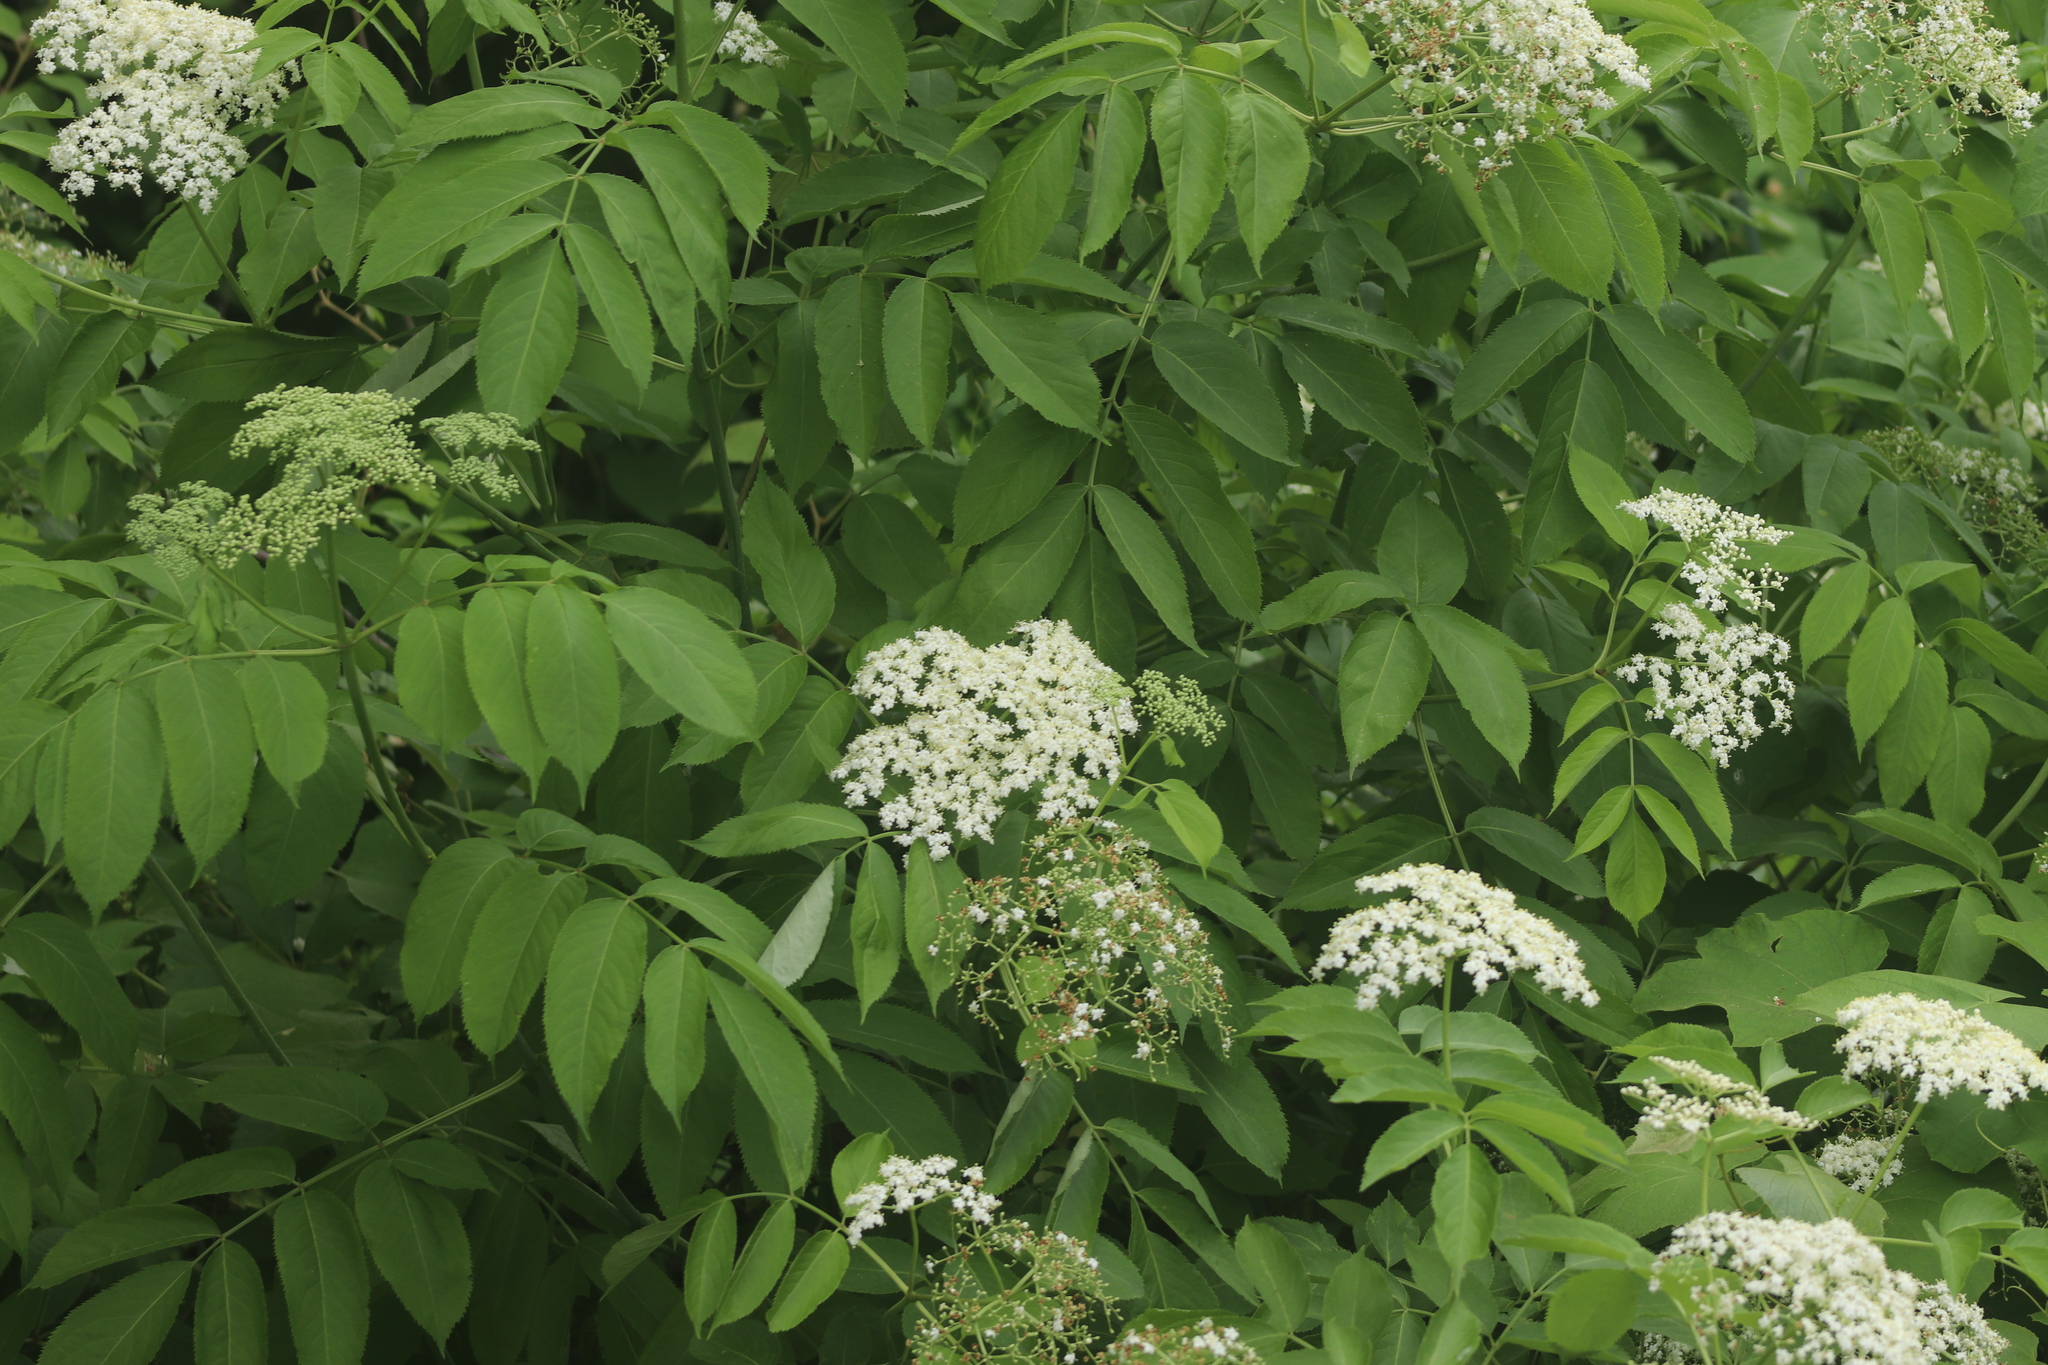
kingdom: Plantae
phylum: Tracheophyta
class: Magnoliopsida
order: Dipsacales
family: Viburnaceae
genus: Sambucus
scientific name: Sambucus canadensis
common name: American elder
